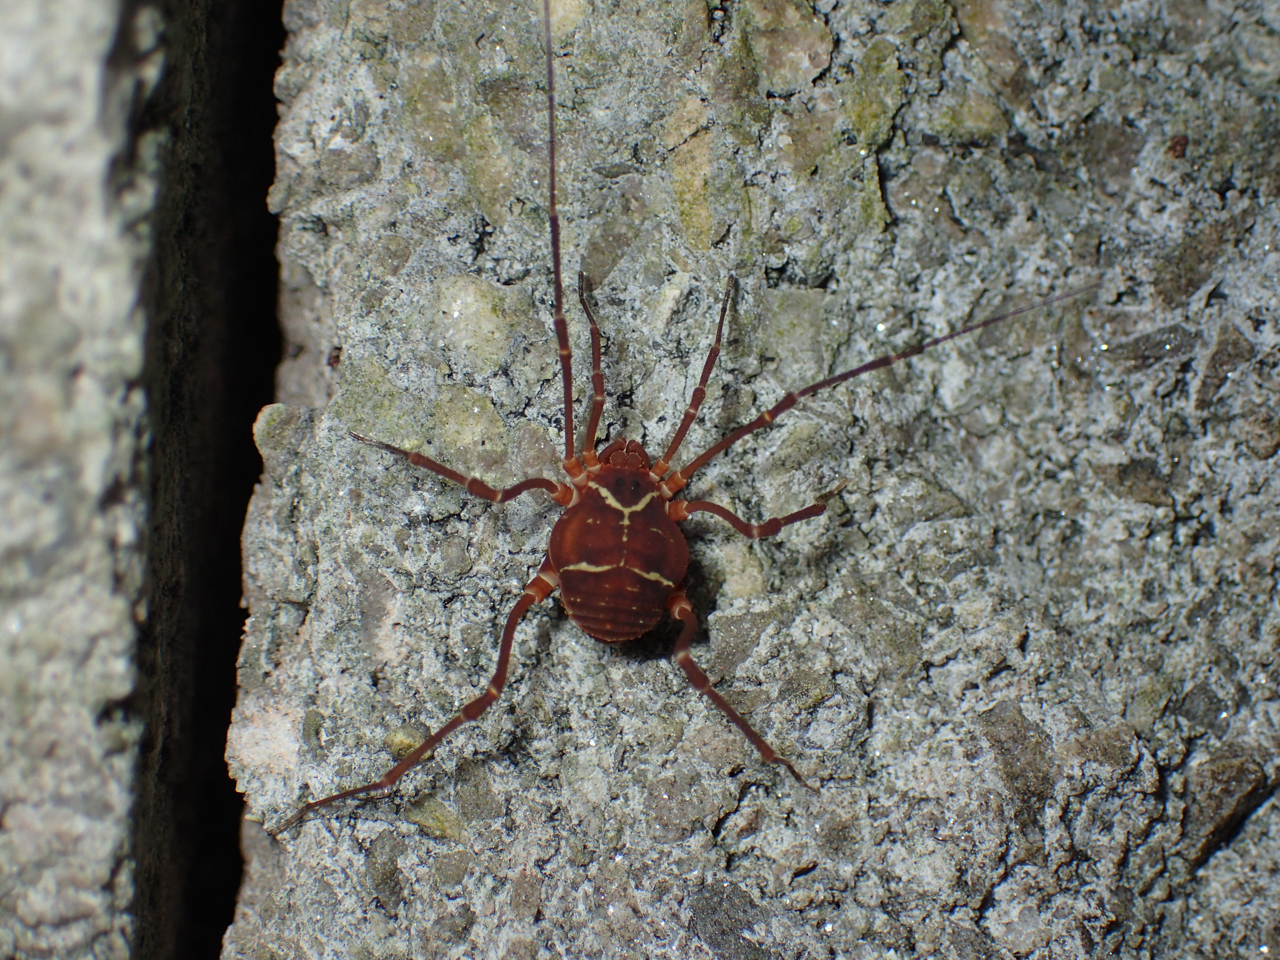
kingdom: Animalia
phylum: Arthropoda
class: Arachnida
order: Opiliones
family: Cosmetidae
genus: Libitioides
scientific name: Libitioides sayi
